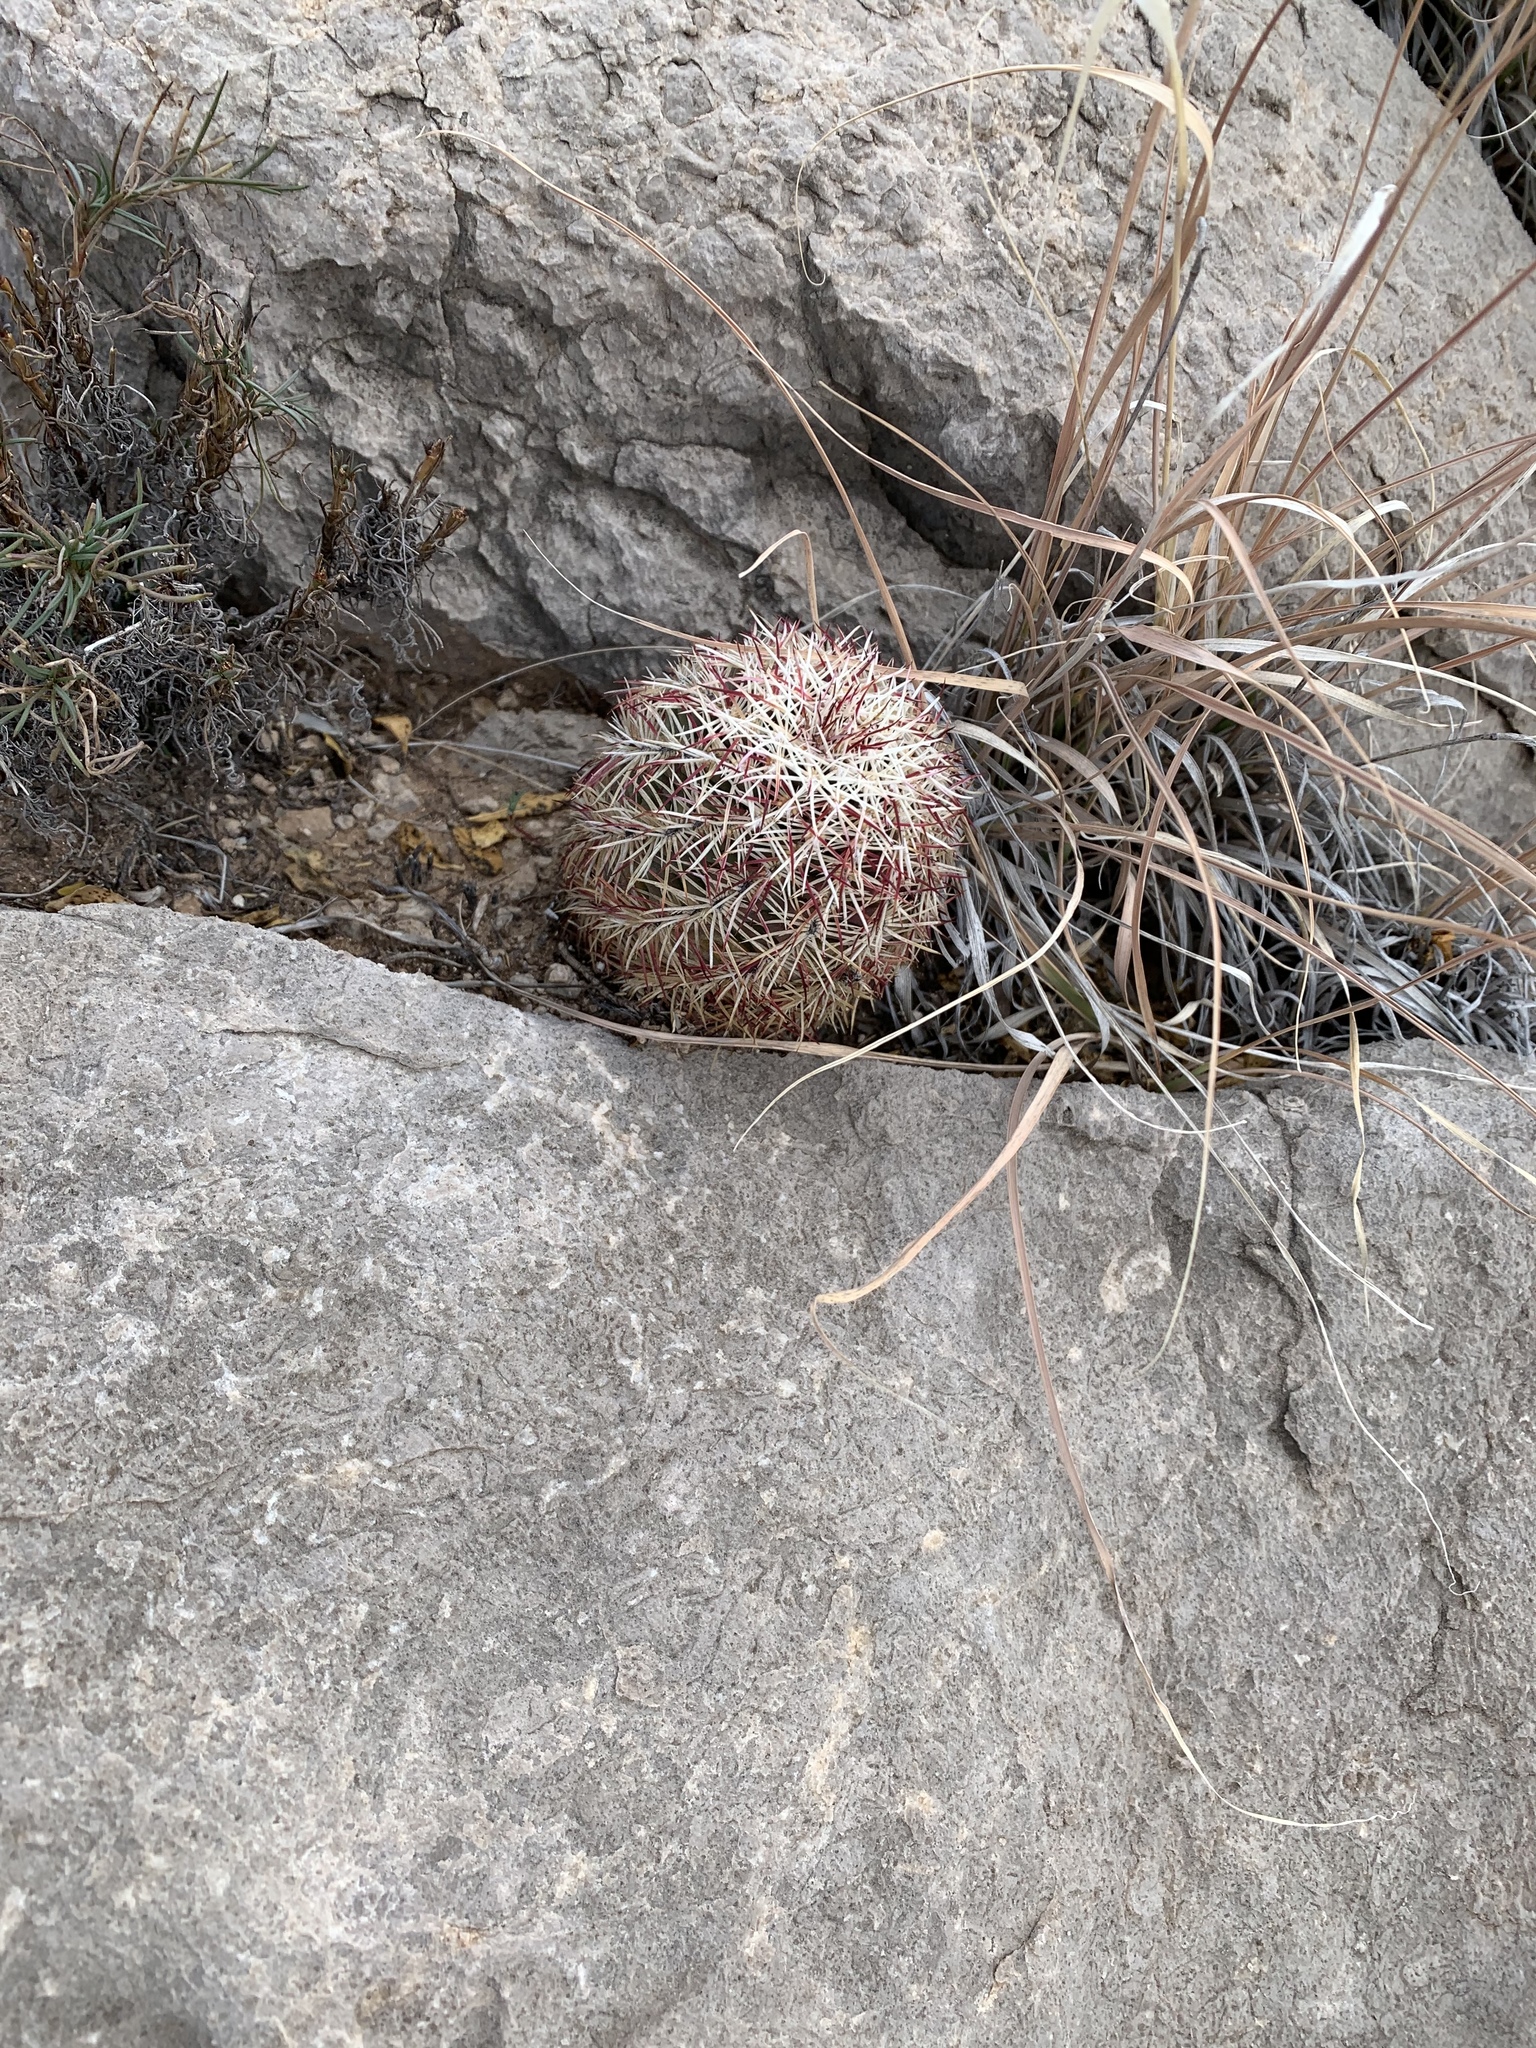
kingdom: Plantae
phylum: Tracheophyta
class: Magnoliopsida
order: Caryophyllales
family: Cactaceae
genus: Echinocereus
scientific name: Echinocereus viridiflorus
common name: Nylon hedgehog cactus
